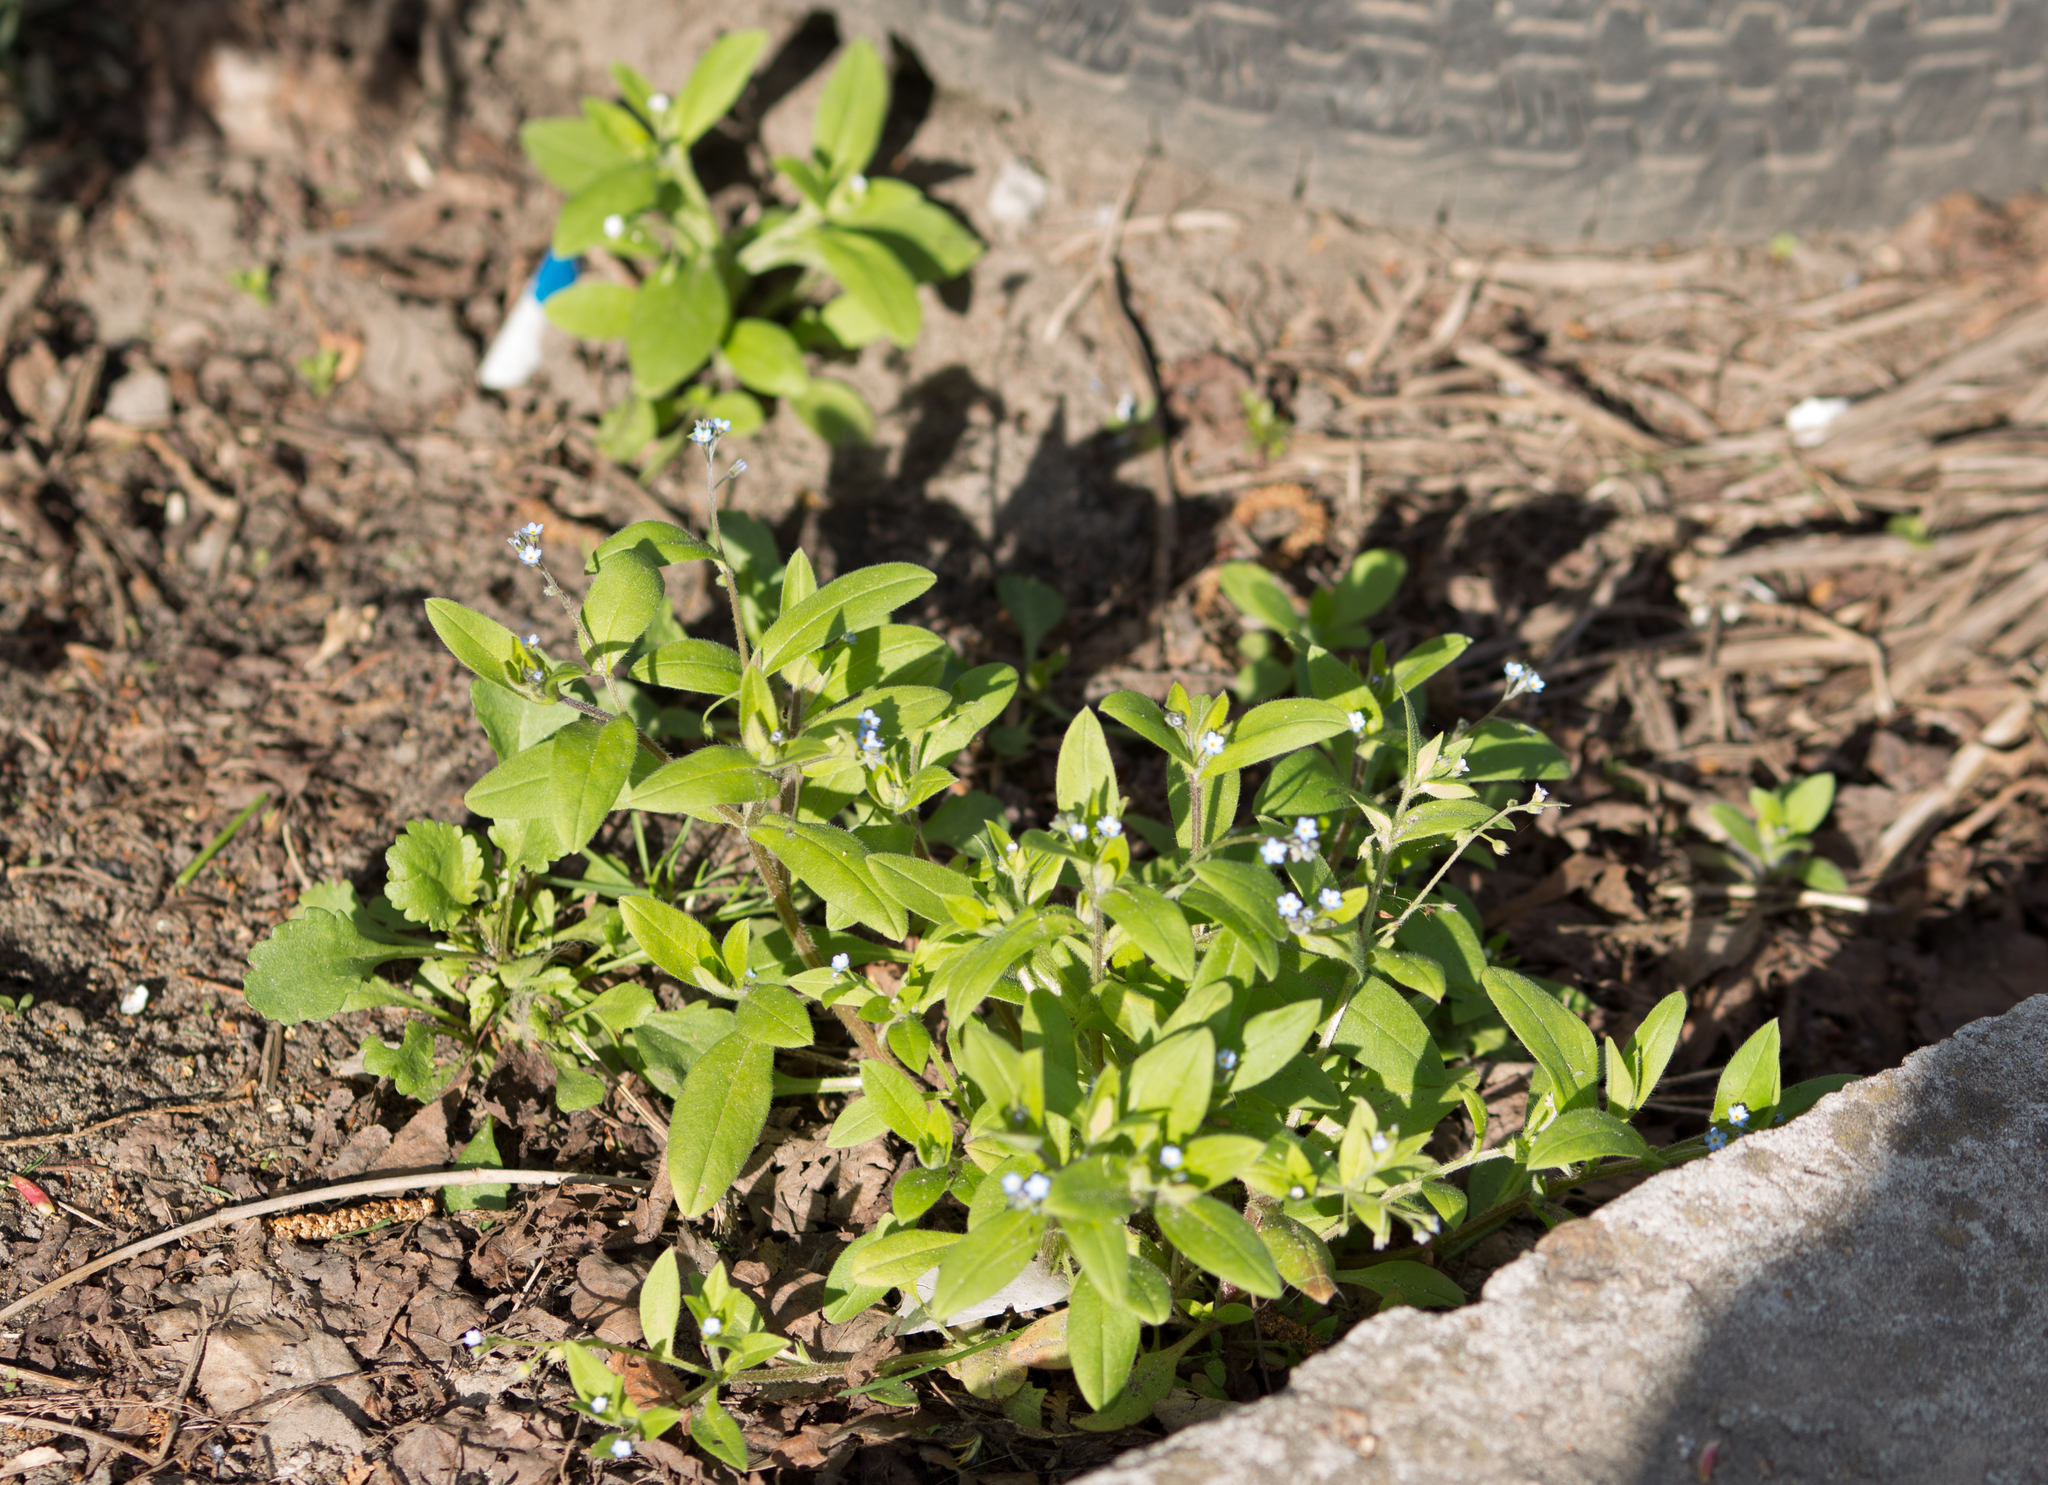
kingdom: Plantae
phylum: Tracheophyta
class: Magnoliopsida
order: Boraginales
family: Boraginaceae
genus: Myosotis
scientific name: Myosotis sparsiflora
